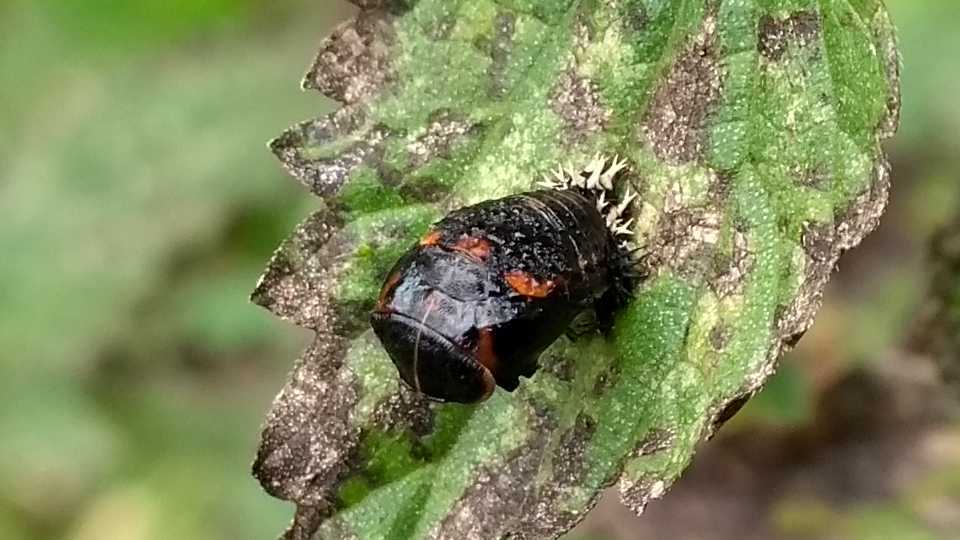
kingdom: Animalia
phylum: Arthropoda
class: Insecta
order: Coleoptera
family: Coccinellidae
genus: Harmonia
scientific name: Harmonia axyridis
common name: Harlequin ladybird
